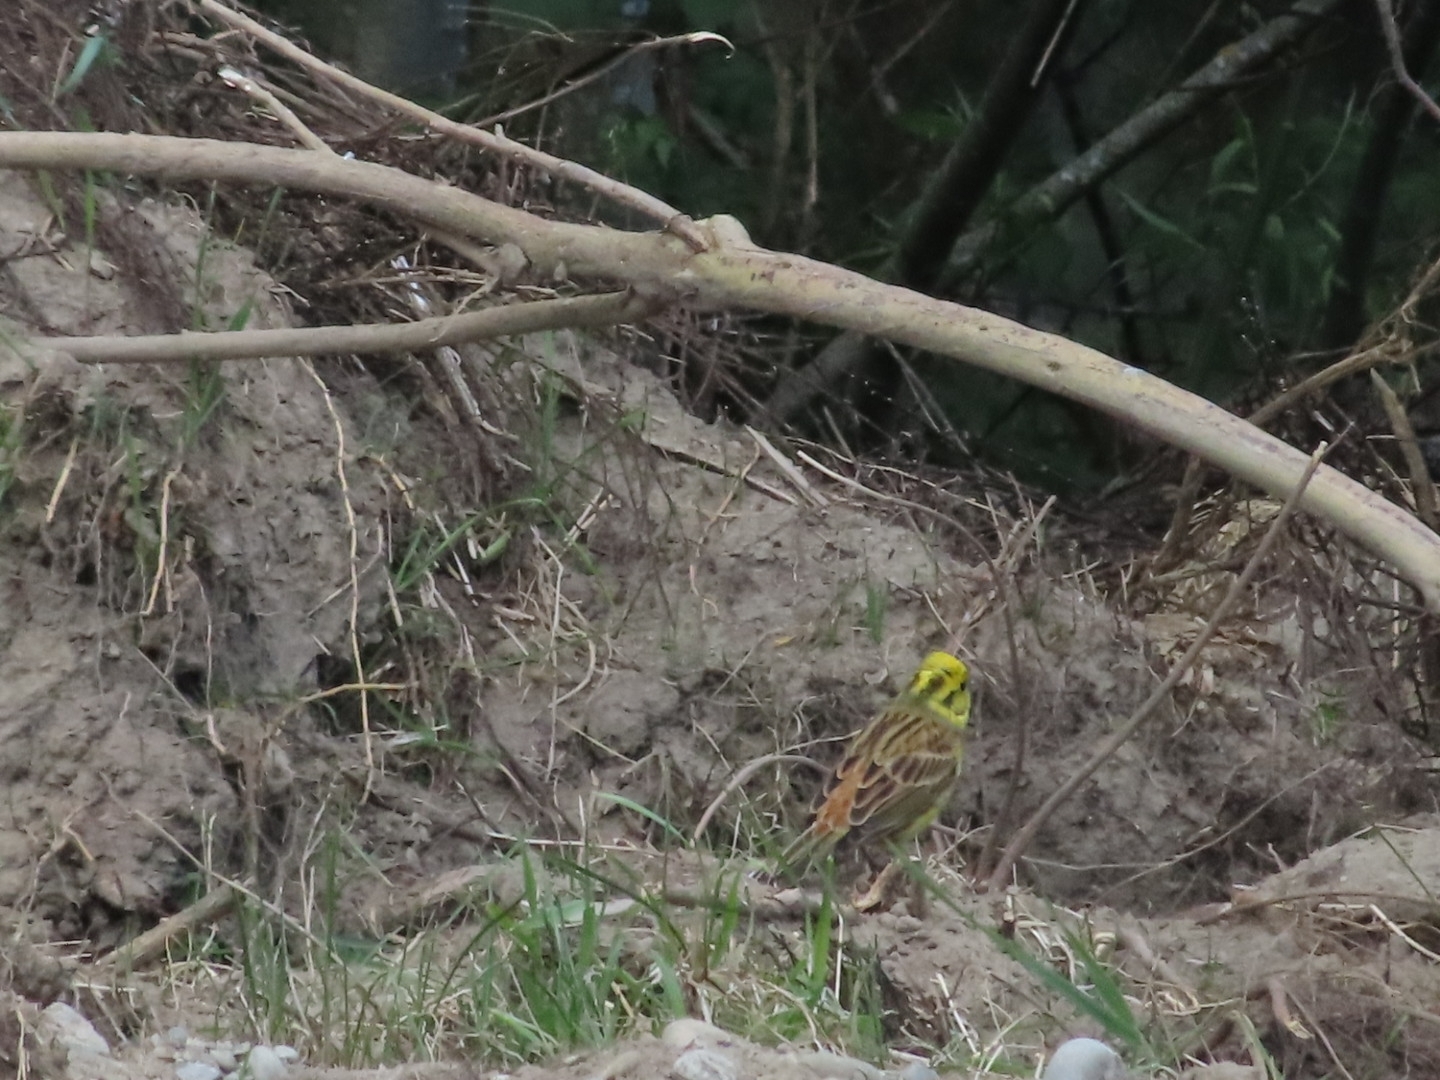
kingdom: Animalia
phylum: Chordata
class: Aves
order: Passeriformes
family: Emberizidae
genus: Emberiza
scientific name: Emberiza citrinella
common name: Yellowhammer
